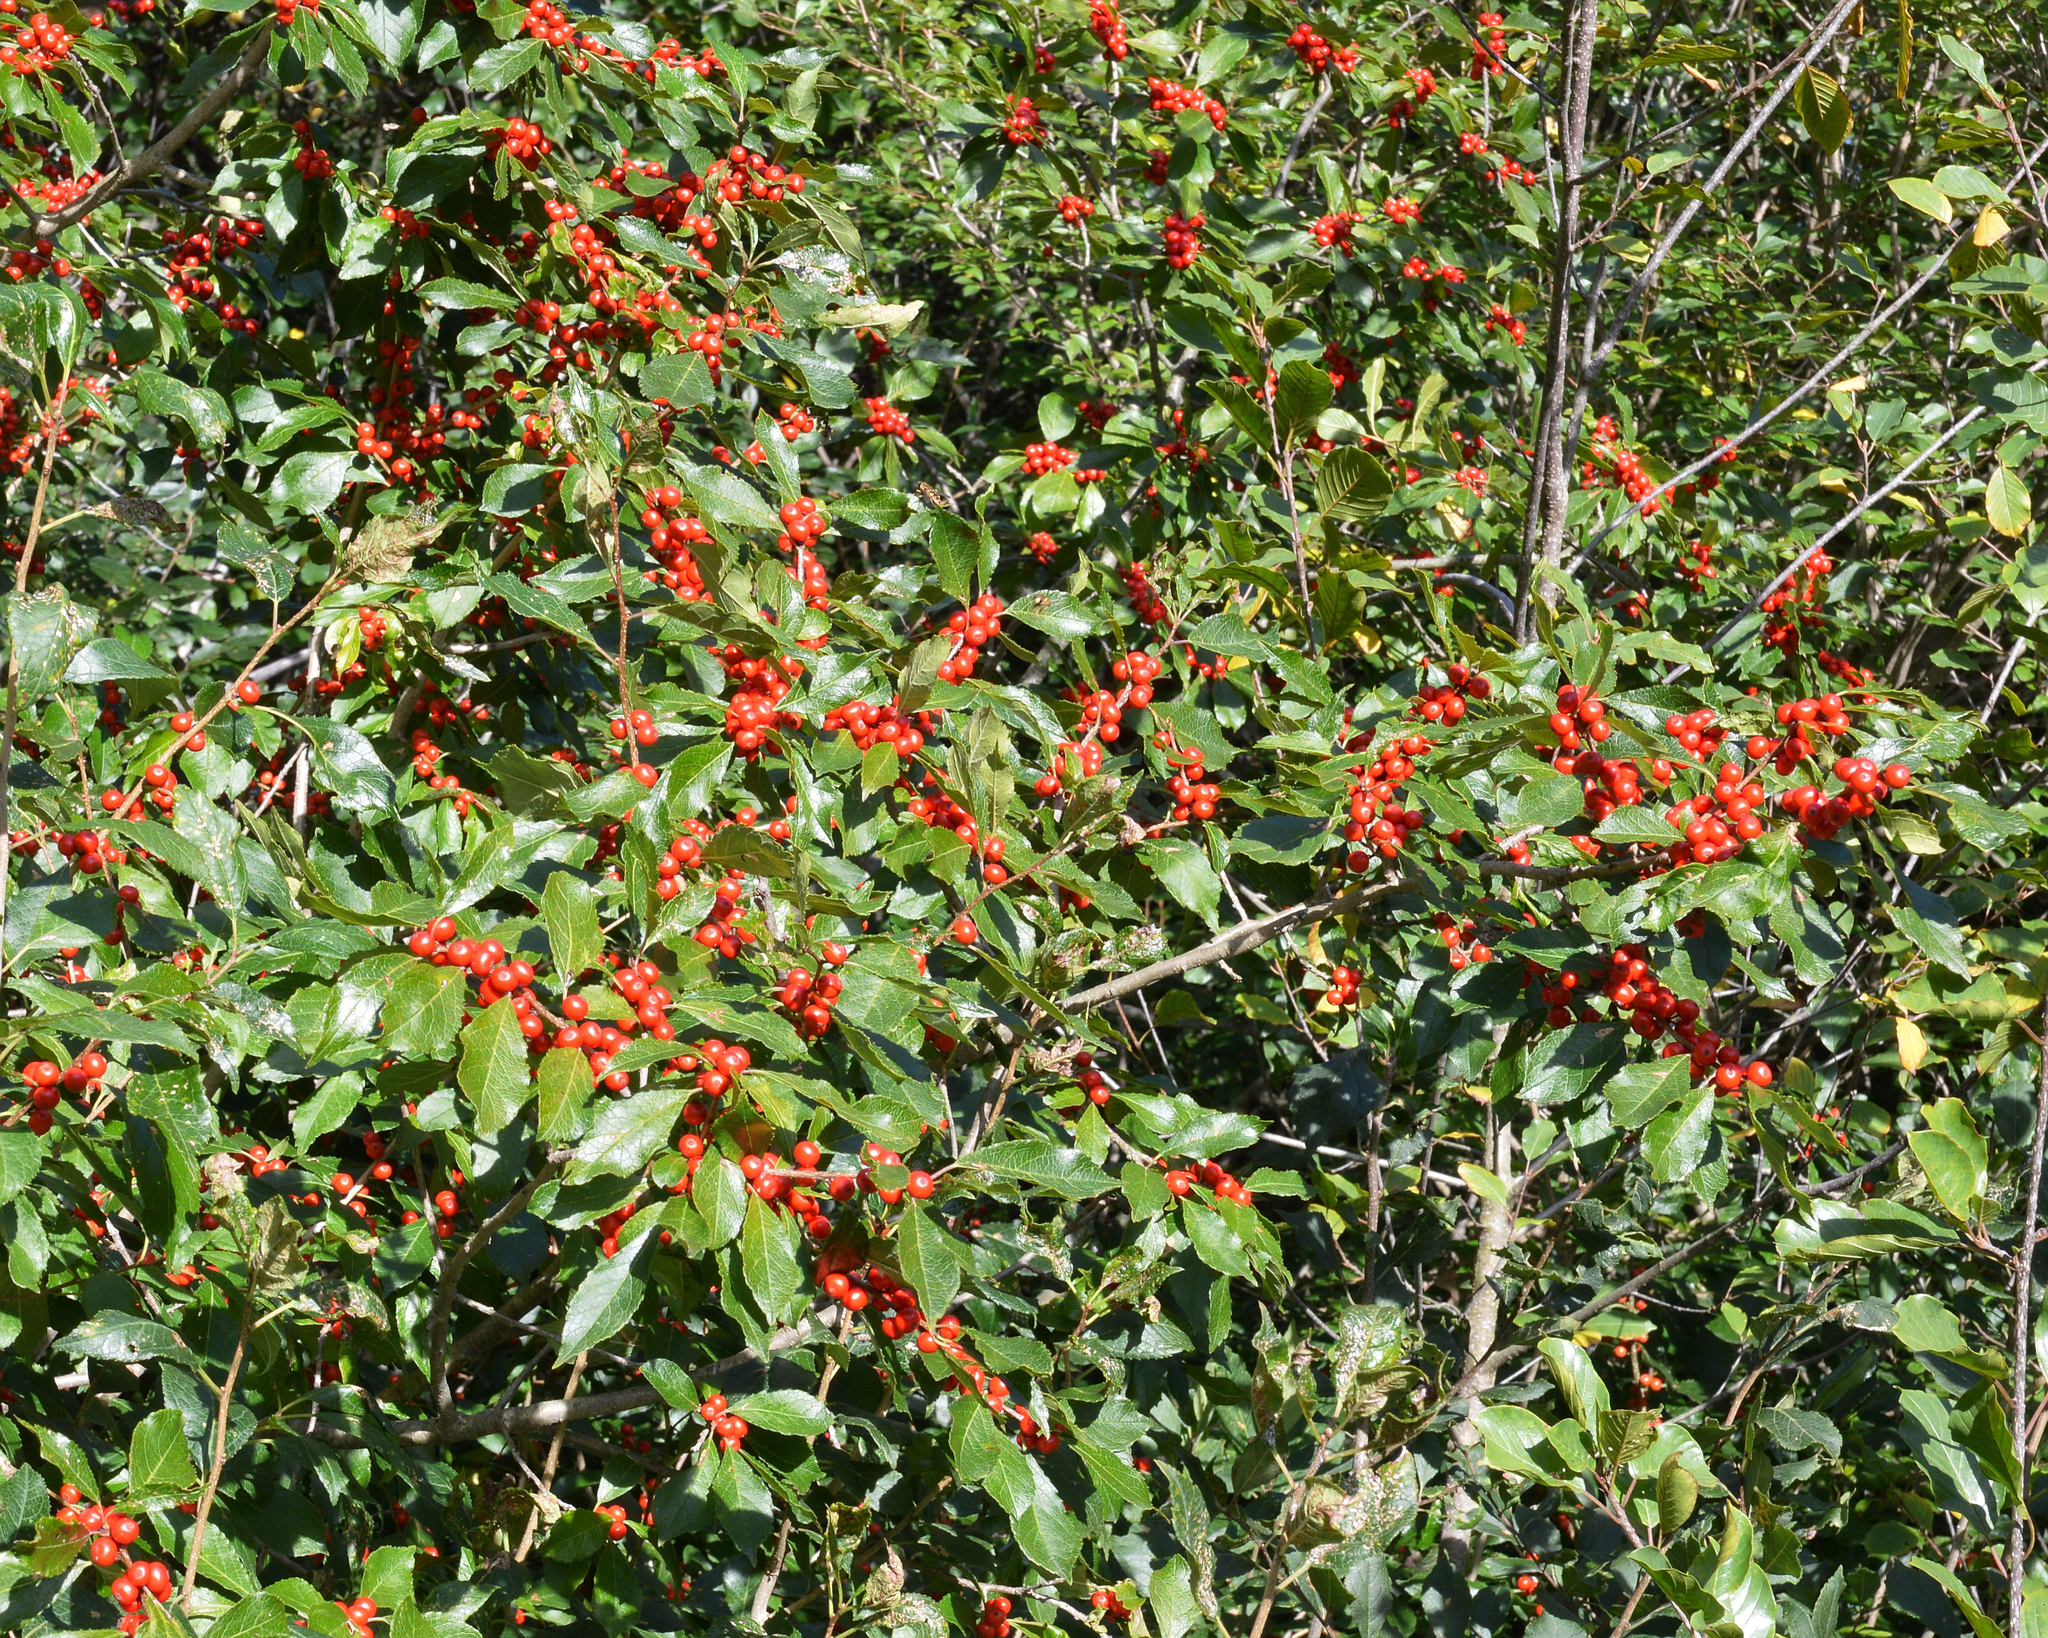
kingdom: Plantae
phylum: Tracheophyta
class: Magnoliopsida
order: Aquifoliales
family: Aquifoliaceae
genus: Ilex
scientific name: Ilex verticillata
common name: Virginia winterberry
